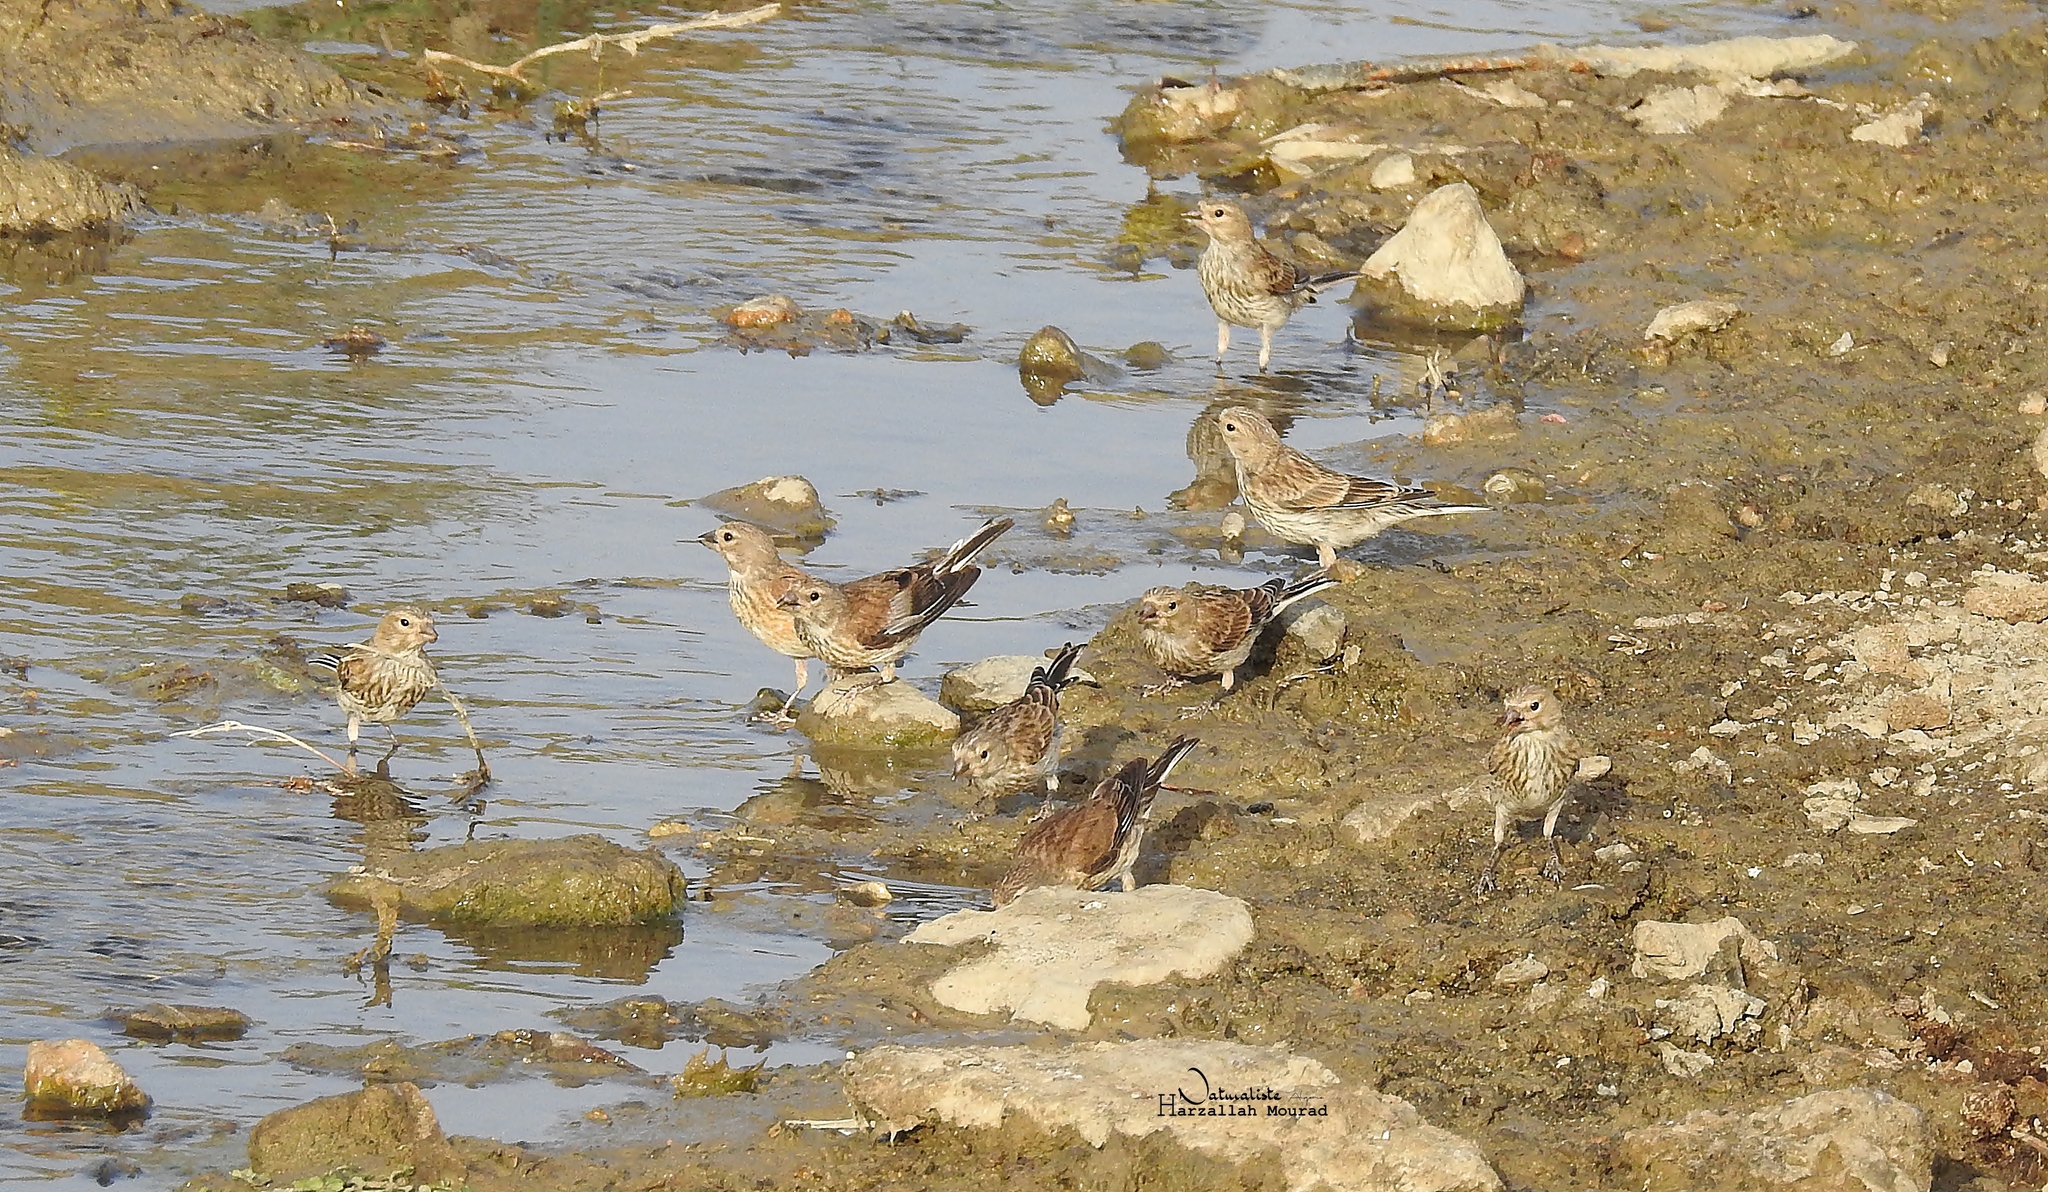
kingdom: Animalia
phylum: Chordata
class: Aves
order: Passeriformes
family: Fringillidae
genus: Linaria
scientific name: Linaria cannabina
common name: Common linnet
